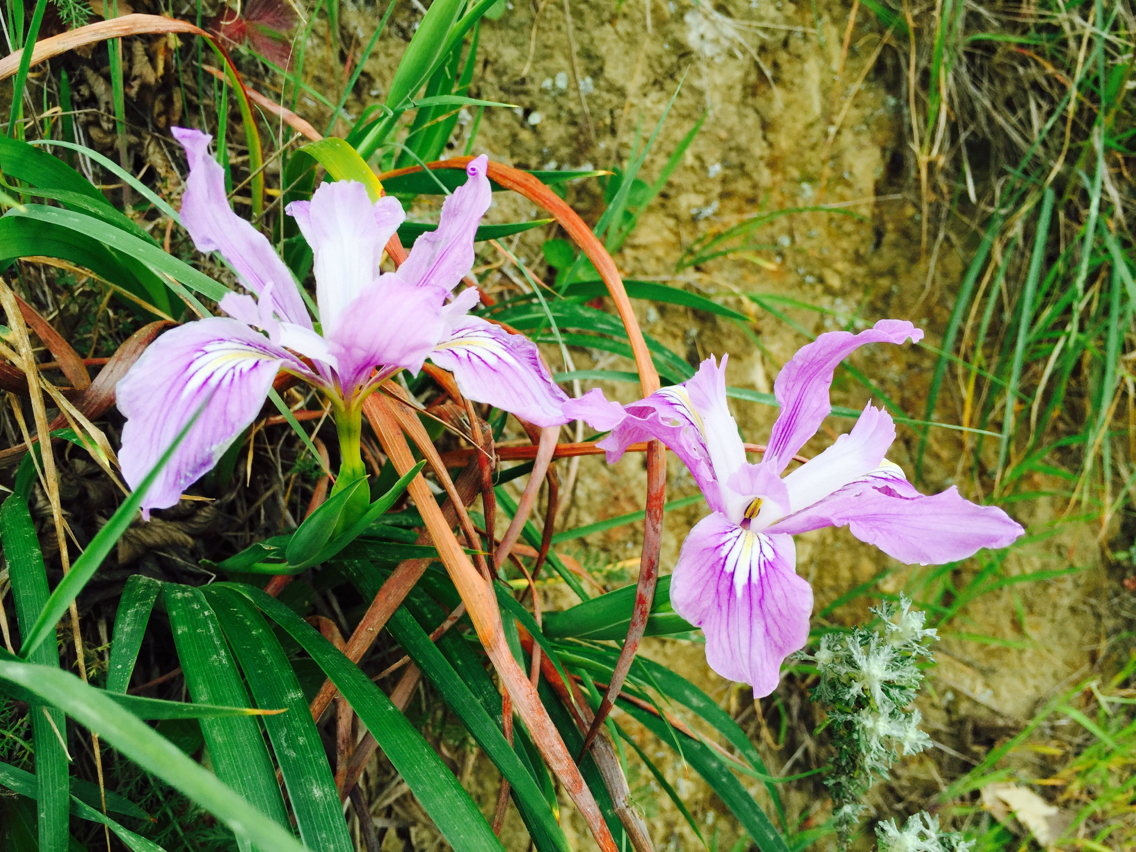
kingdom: Plantae
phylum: Tracheophyta
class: Liliopsida
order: Asparagales
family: Iridaceae
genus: Iris
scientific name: Iris douglasiana
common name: Marin iris
